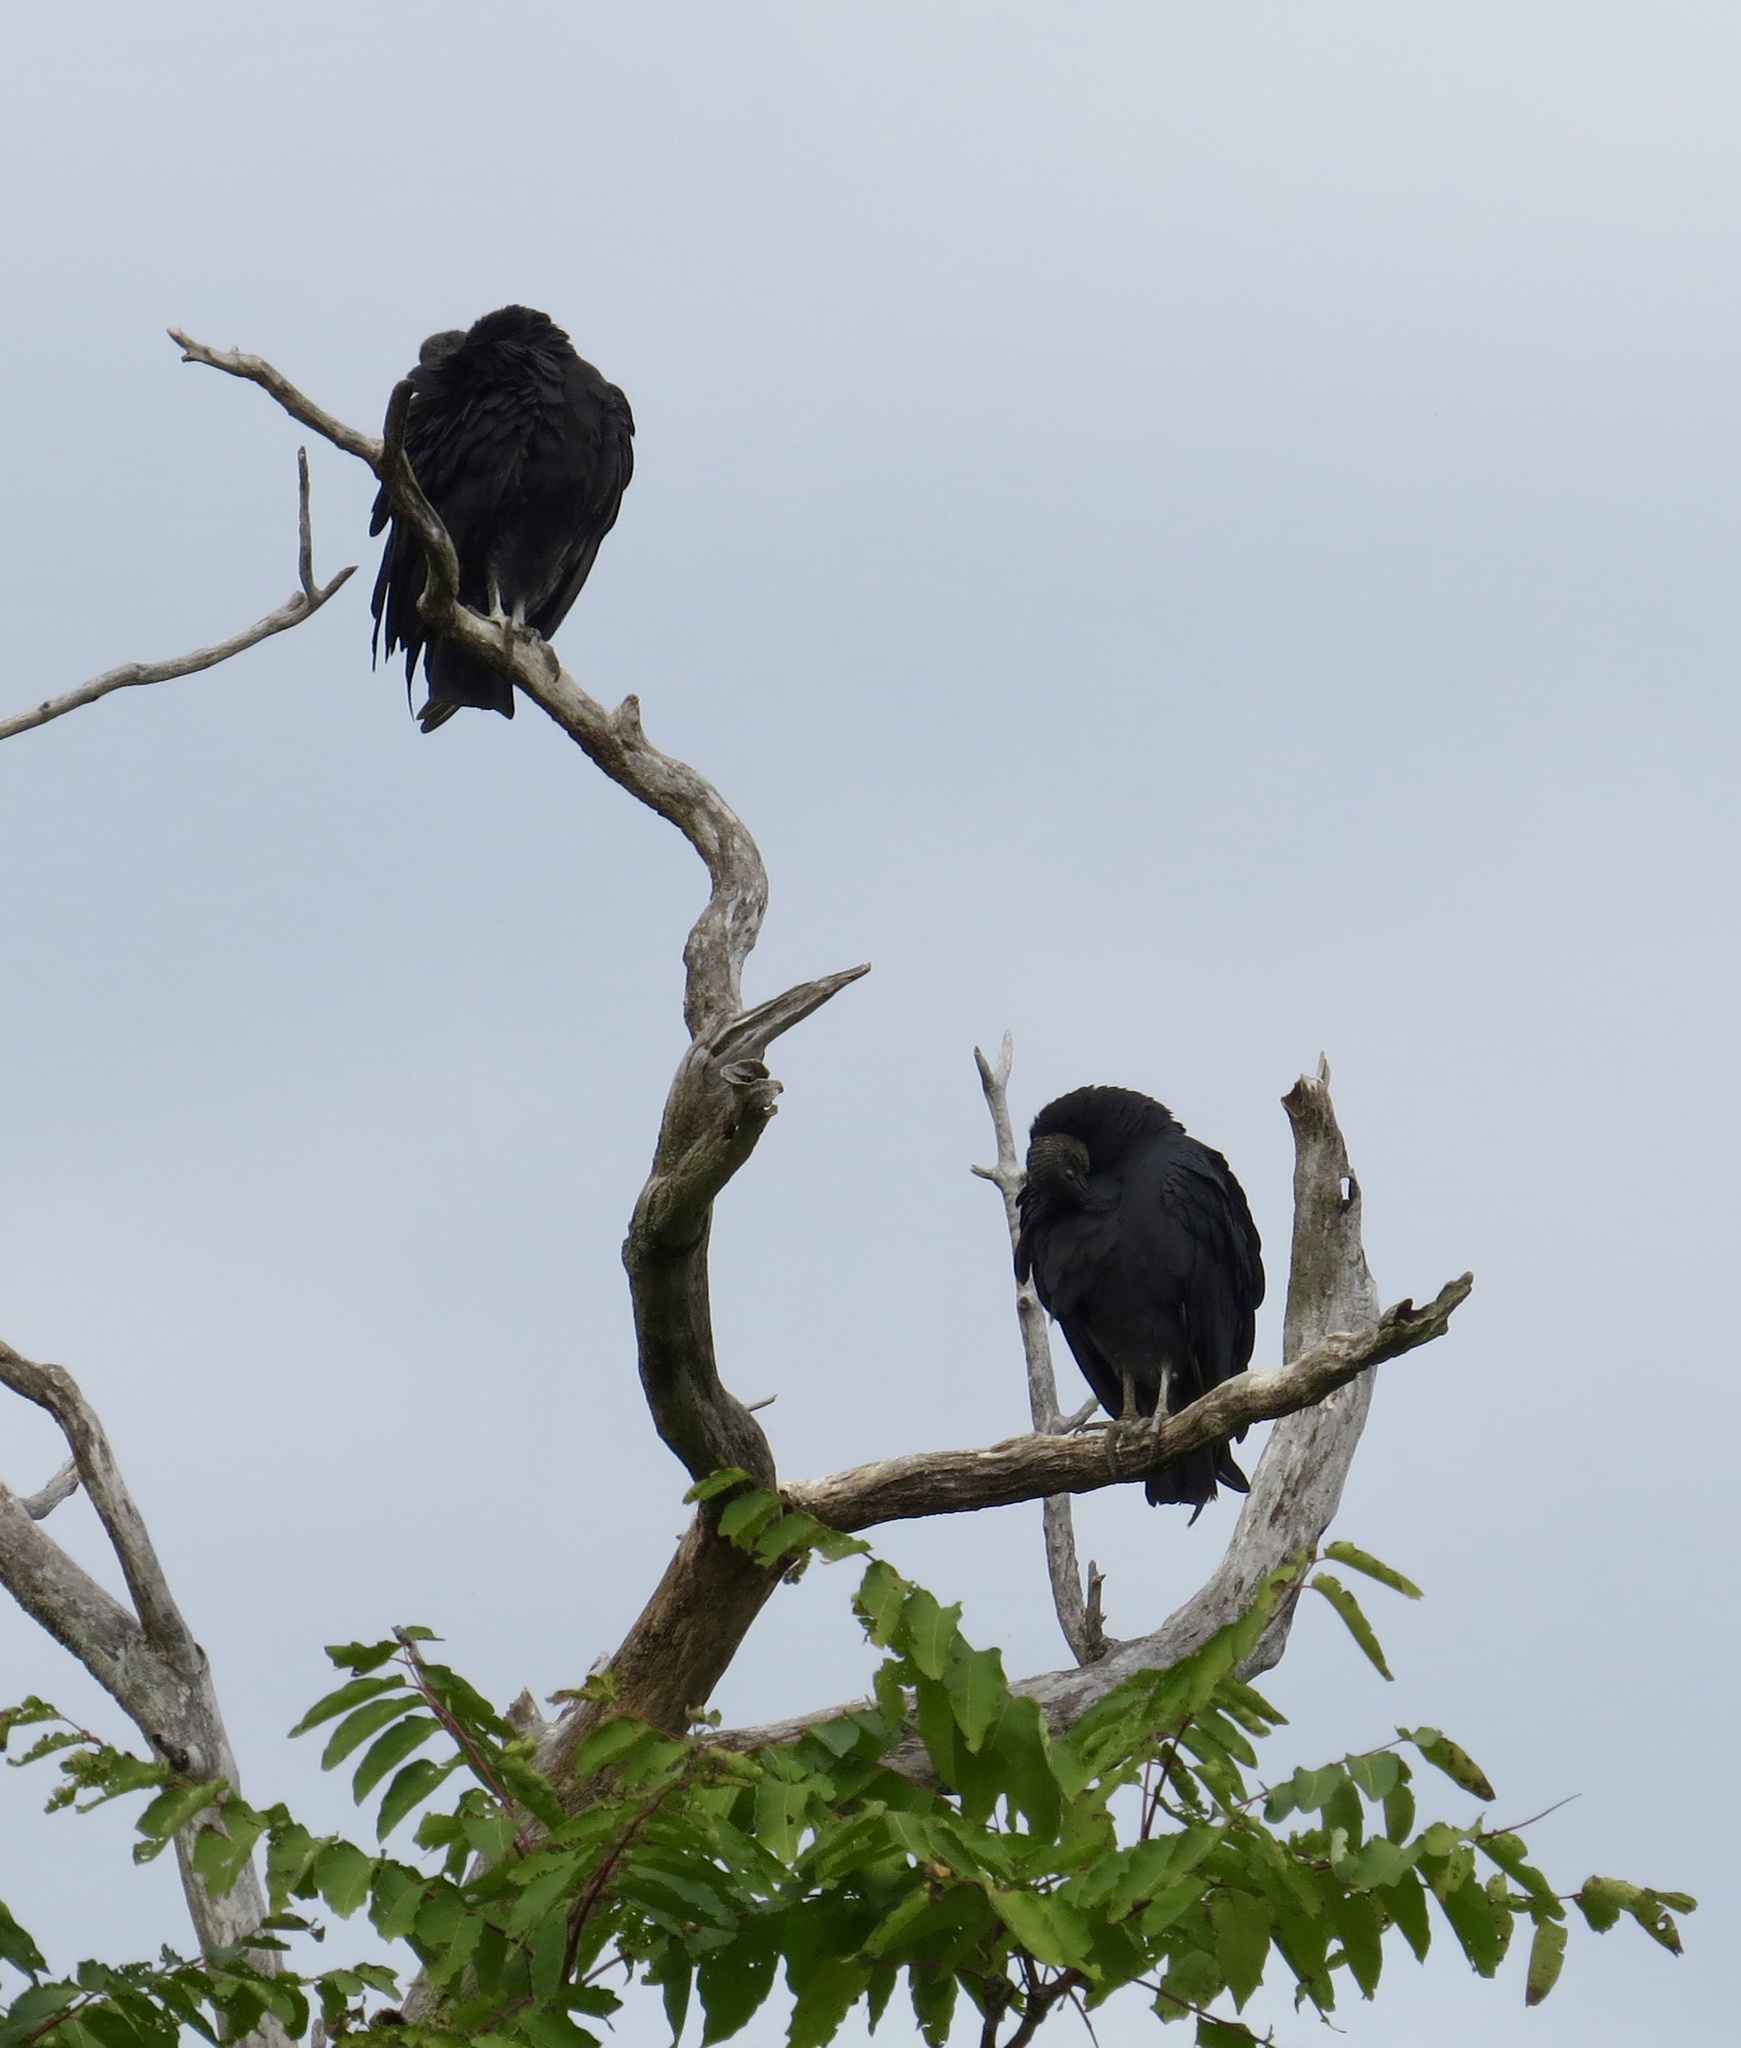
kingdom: Animalia
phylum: Chordata
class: Aves
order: Accipitriformes
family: Cathartidae
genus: Coragyps
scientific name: Coragyps atratus
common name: Black vulture
